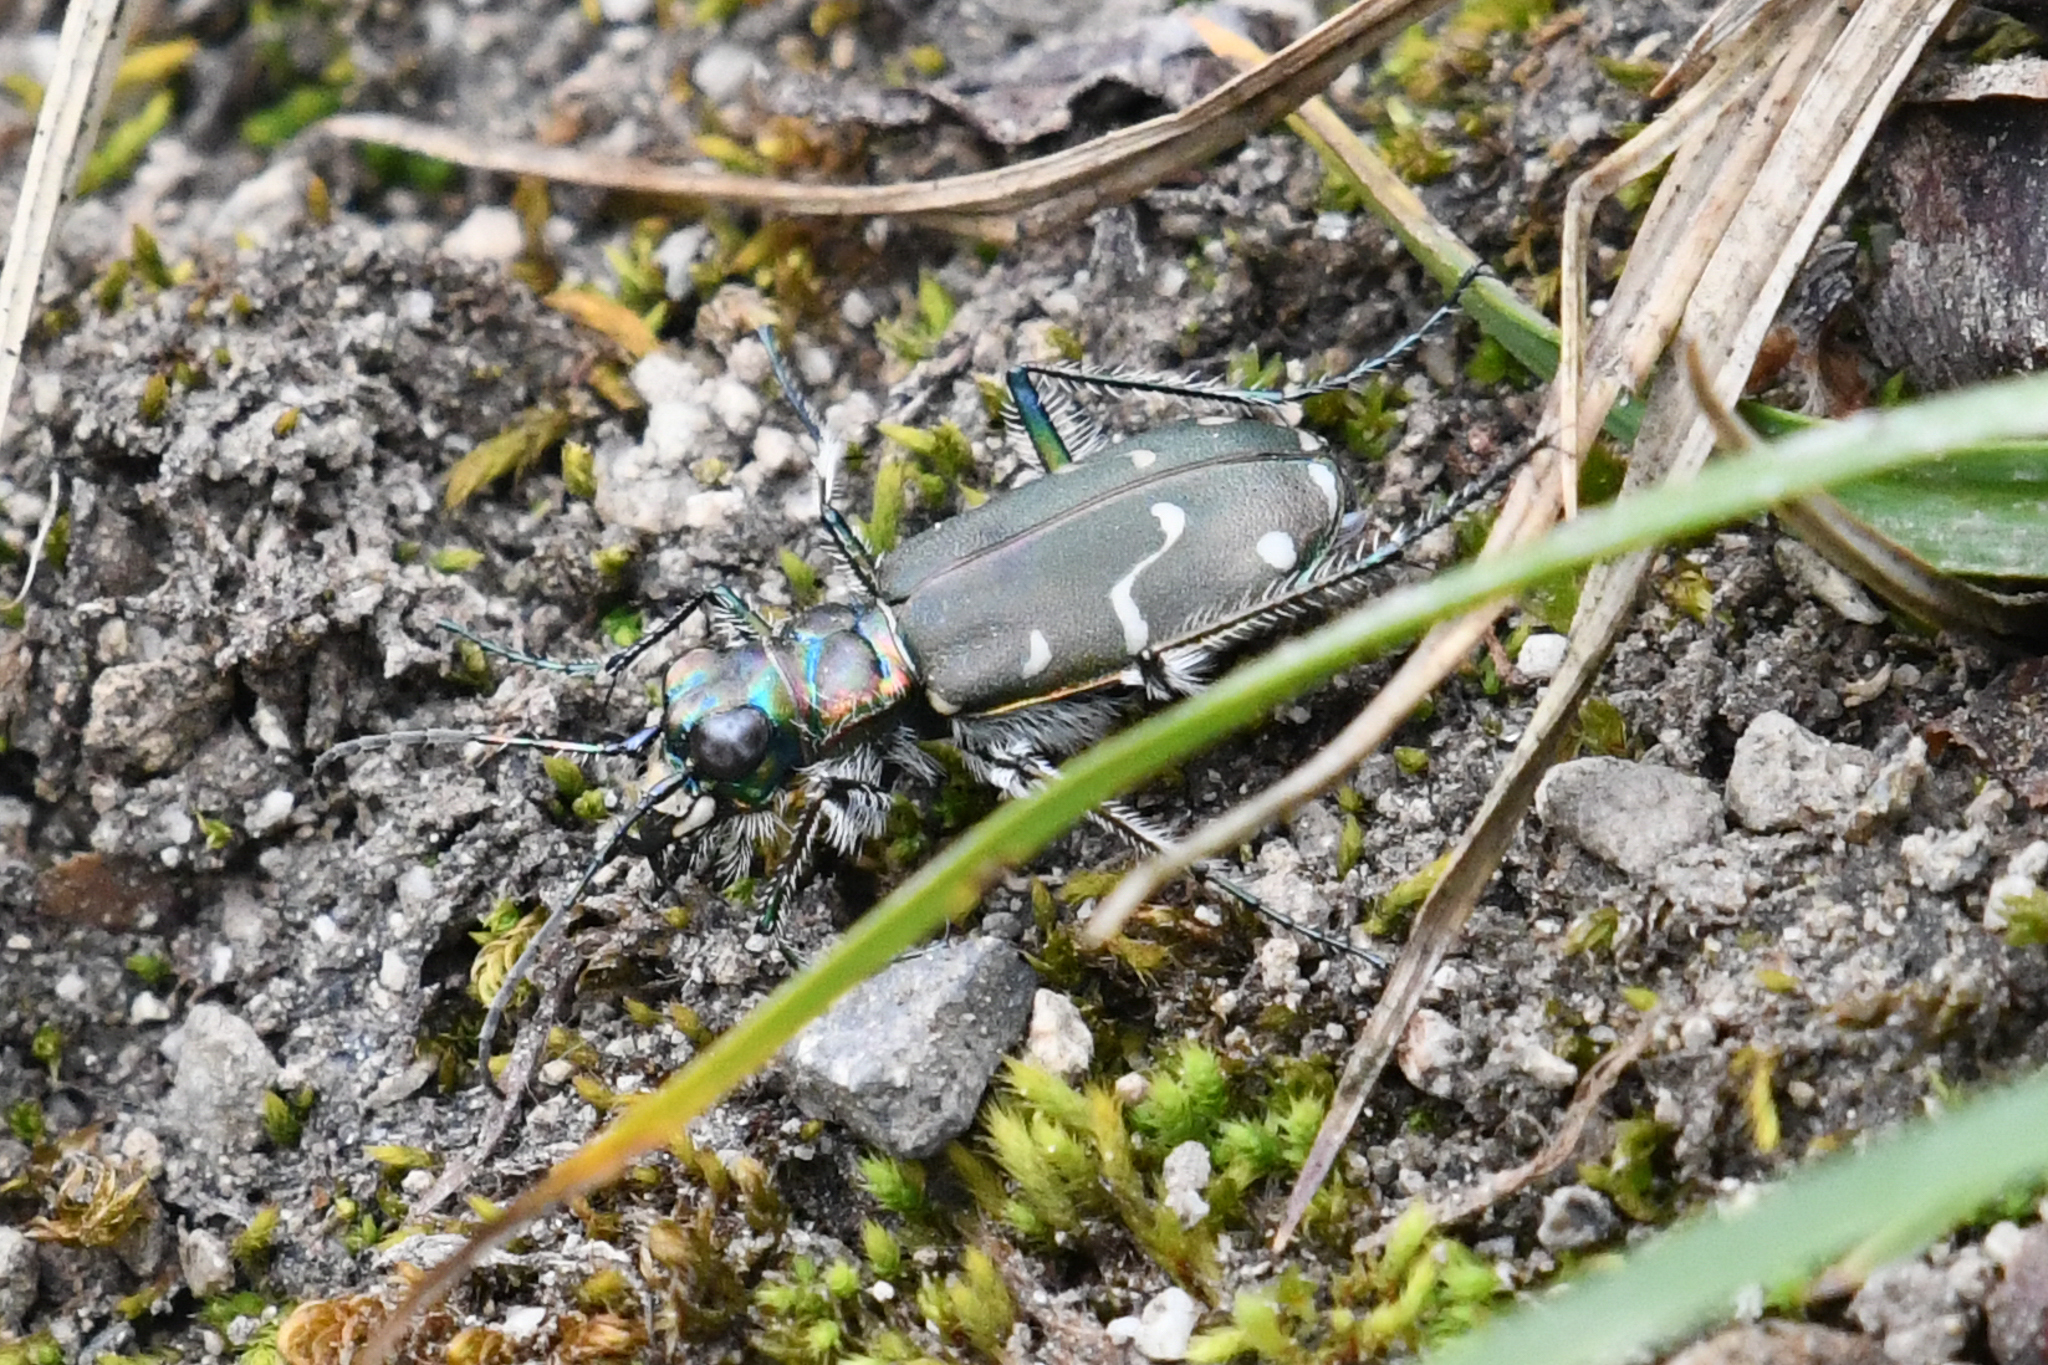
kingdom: Animalia
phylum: Arthropoda
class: Insecta
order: Coleoptera
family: Carabidae
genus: Cicindela
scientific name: Cicindela depressula
